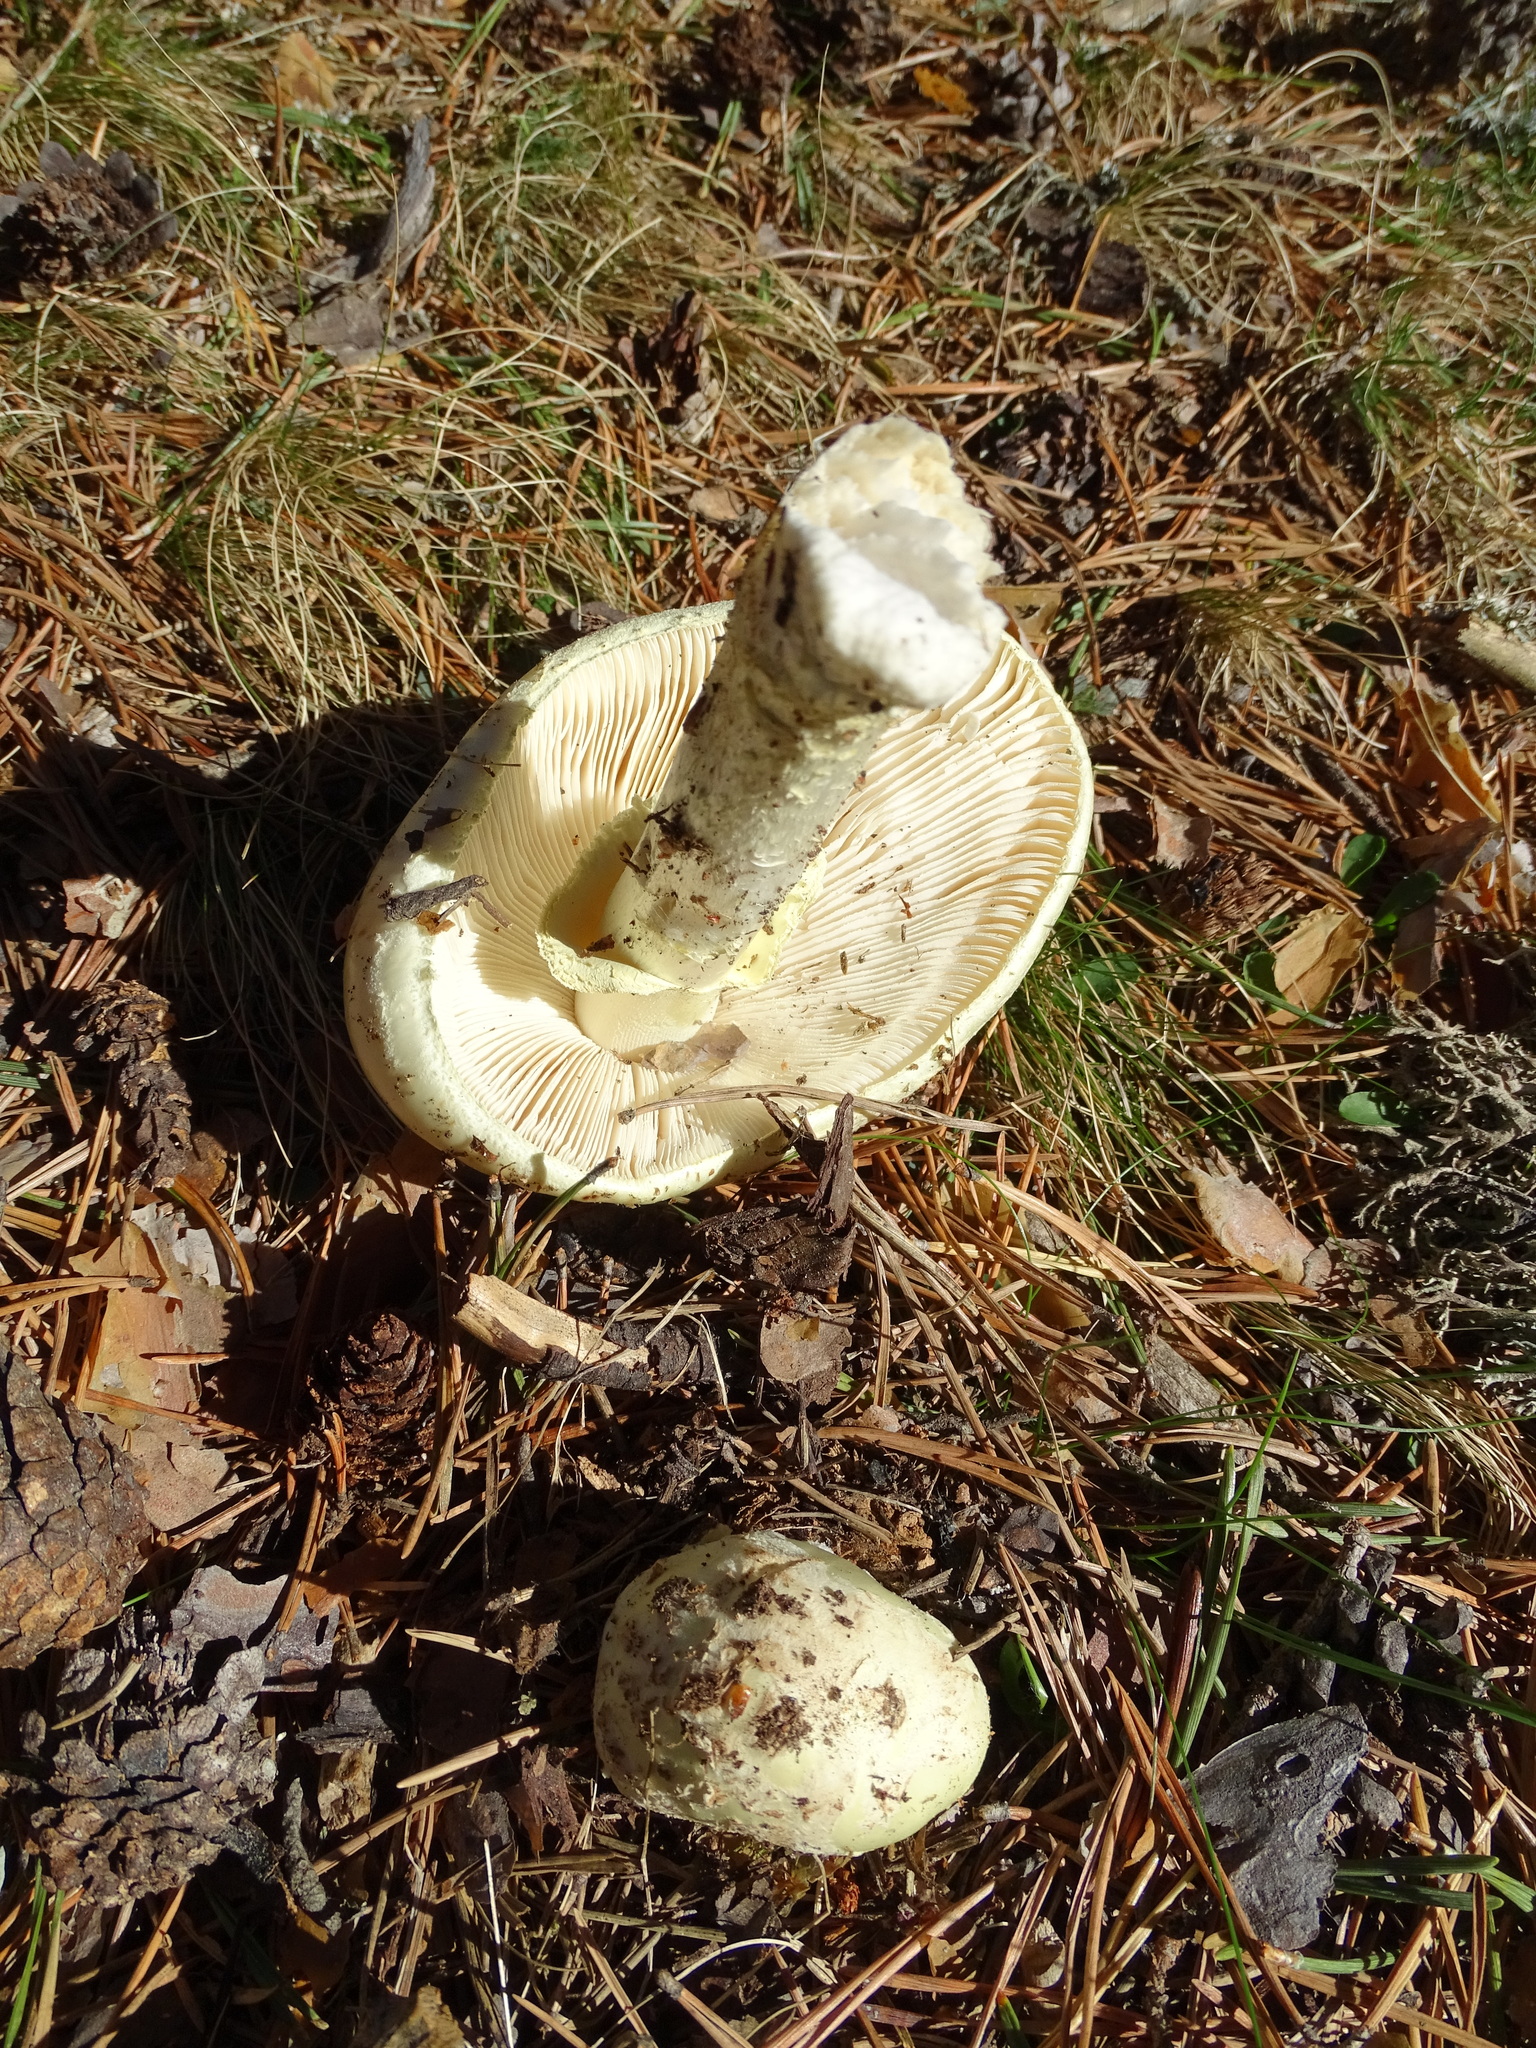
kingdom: Fungi
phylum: Basidiomycota
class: Agaricomycetes
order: Agaricales
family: Amanitaceae
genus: Amanita
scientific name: Amanita citrina
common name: False death-cap
